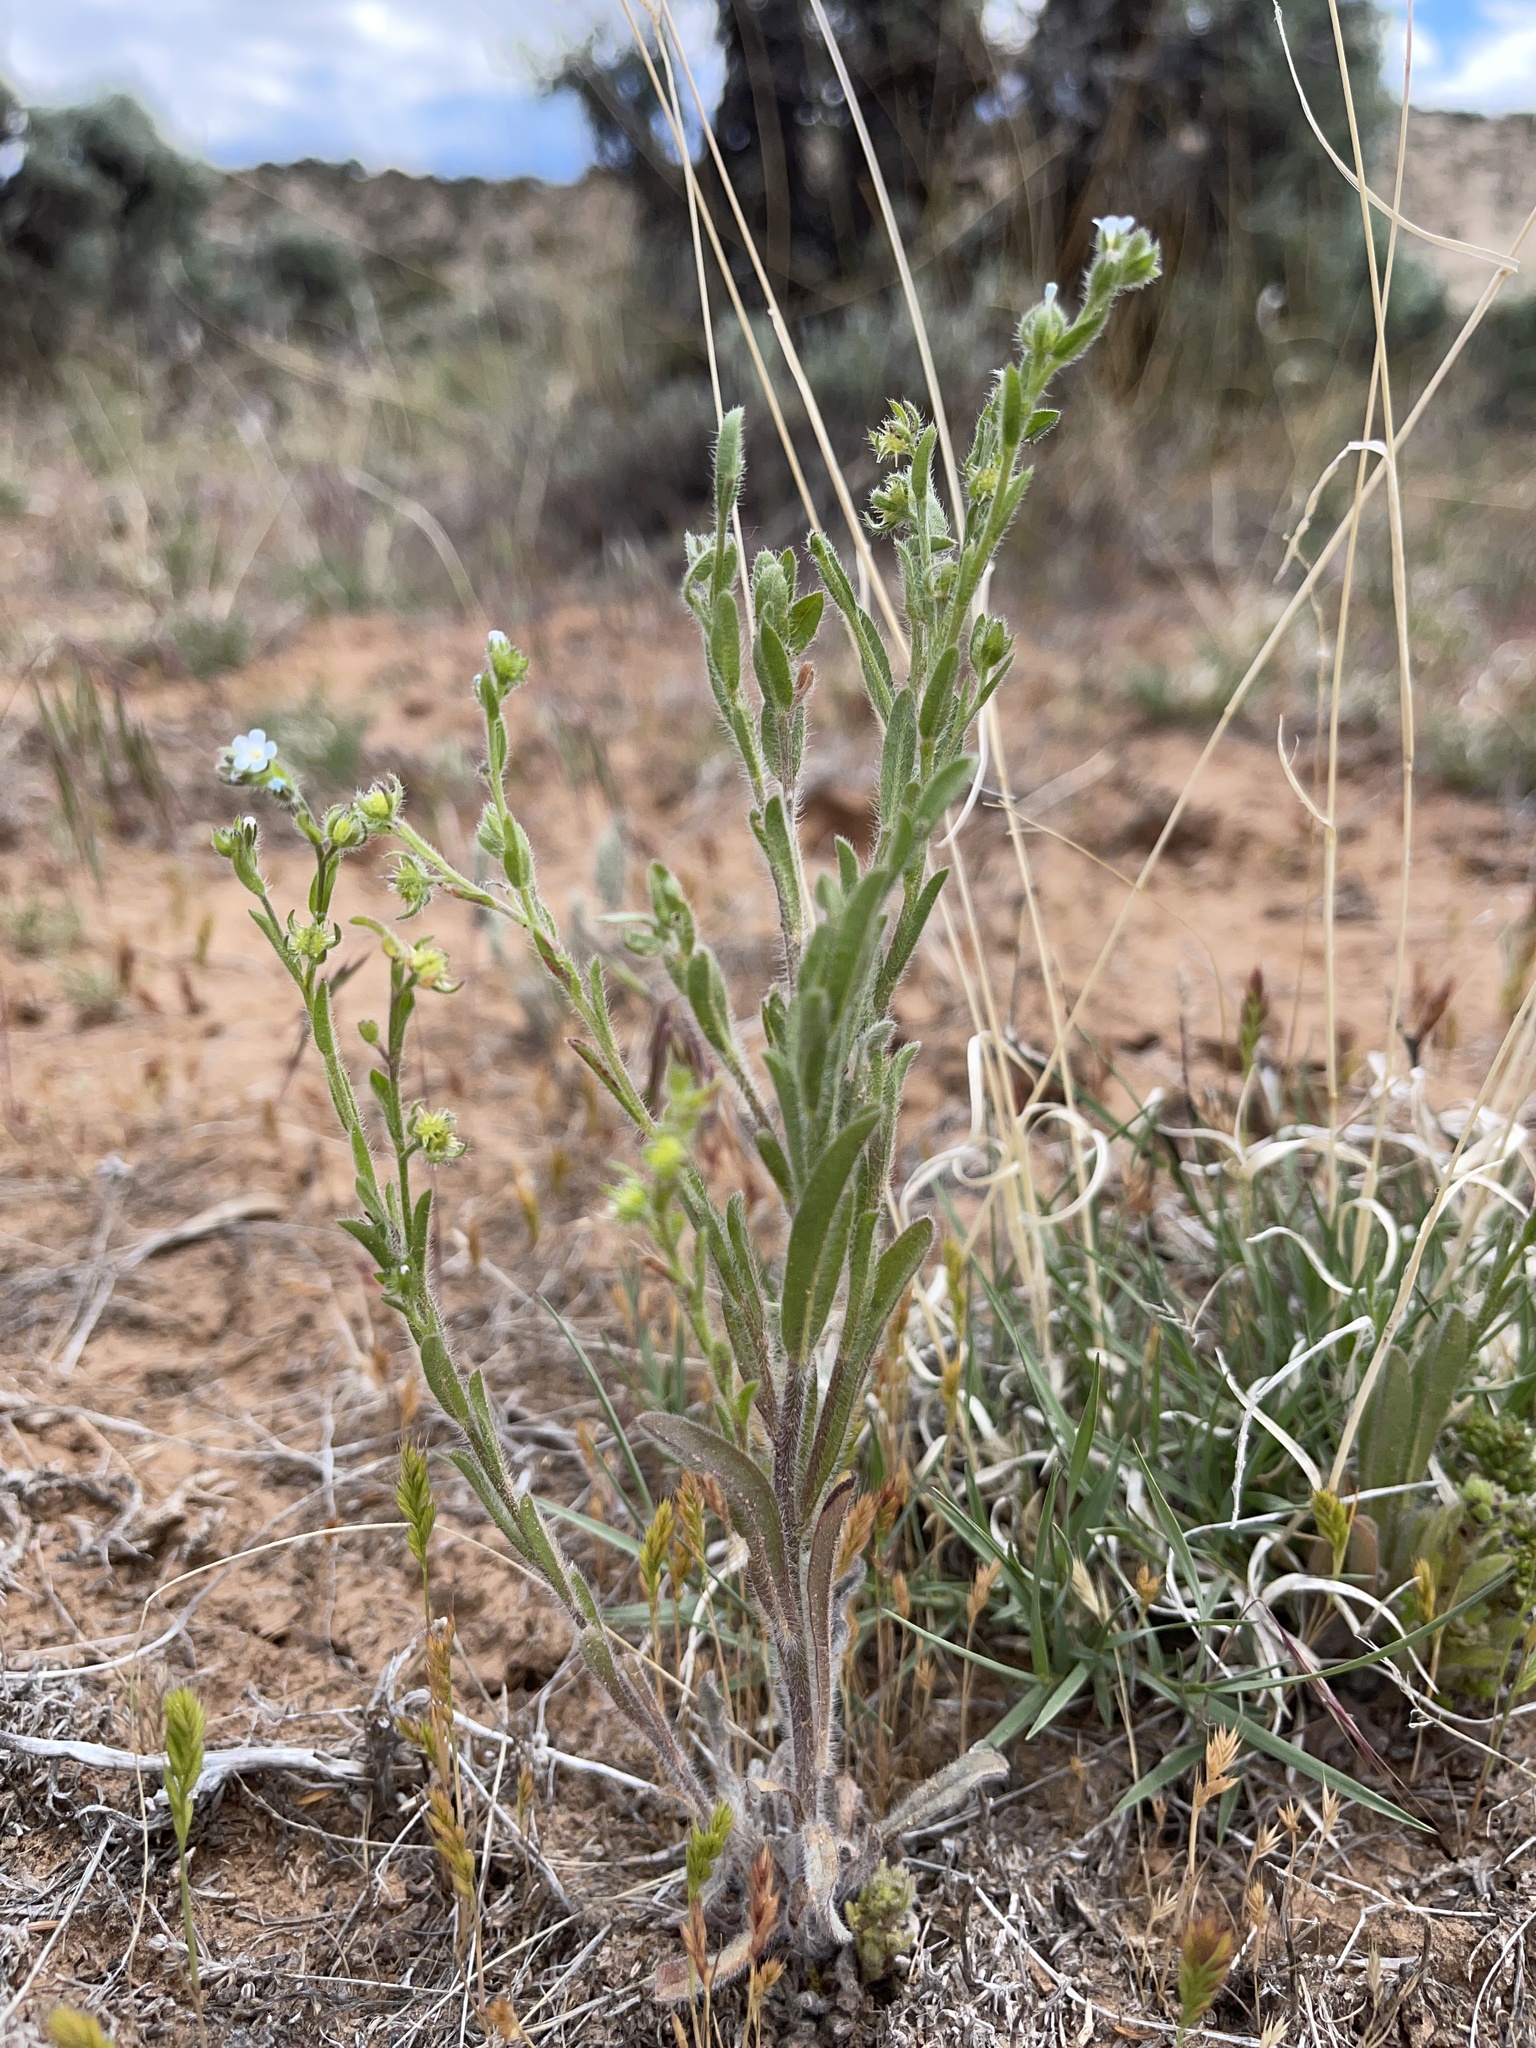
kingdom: Plantae
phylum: Tracheophyta
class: Magnoliopsida
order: Boraginales
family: Boraginaceae
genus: Lappula
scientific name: Lappula occidentalis
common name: Western stickseed
